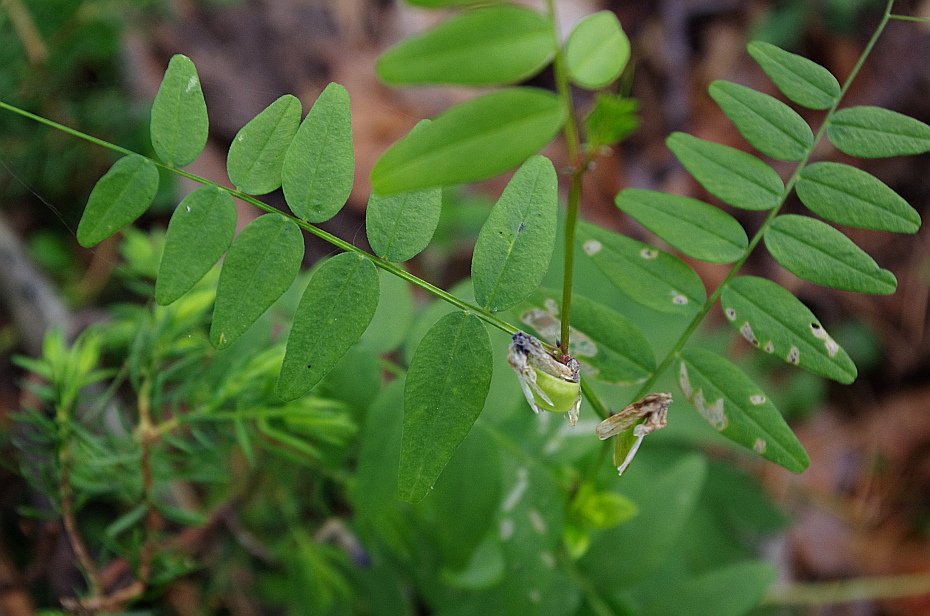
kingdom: Plantae
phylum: Tracheophyta
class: Magnoliopsida
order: Fabales
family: Fabaceae
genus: Vicia
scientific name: Vicia sepium
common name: Bush vetch
